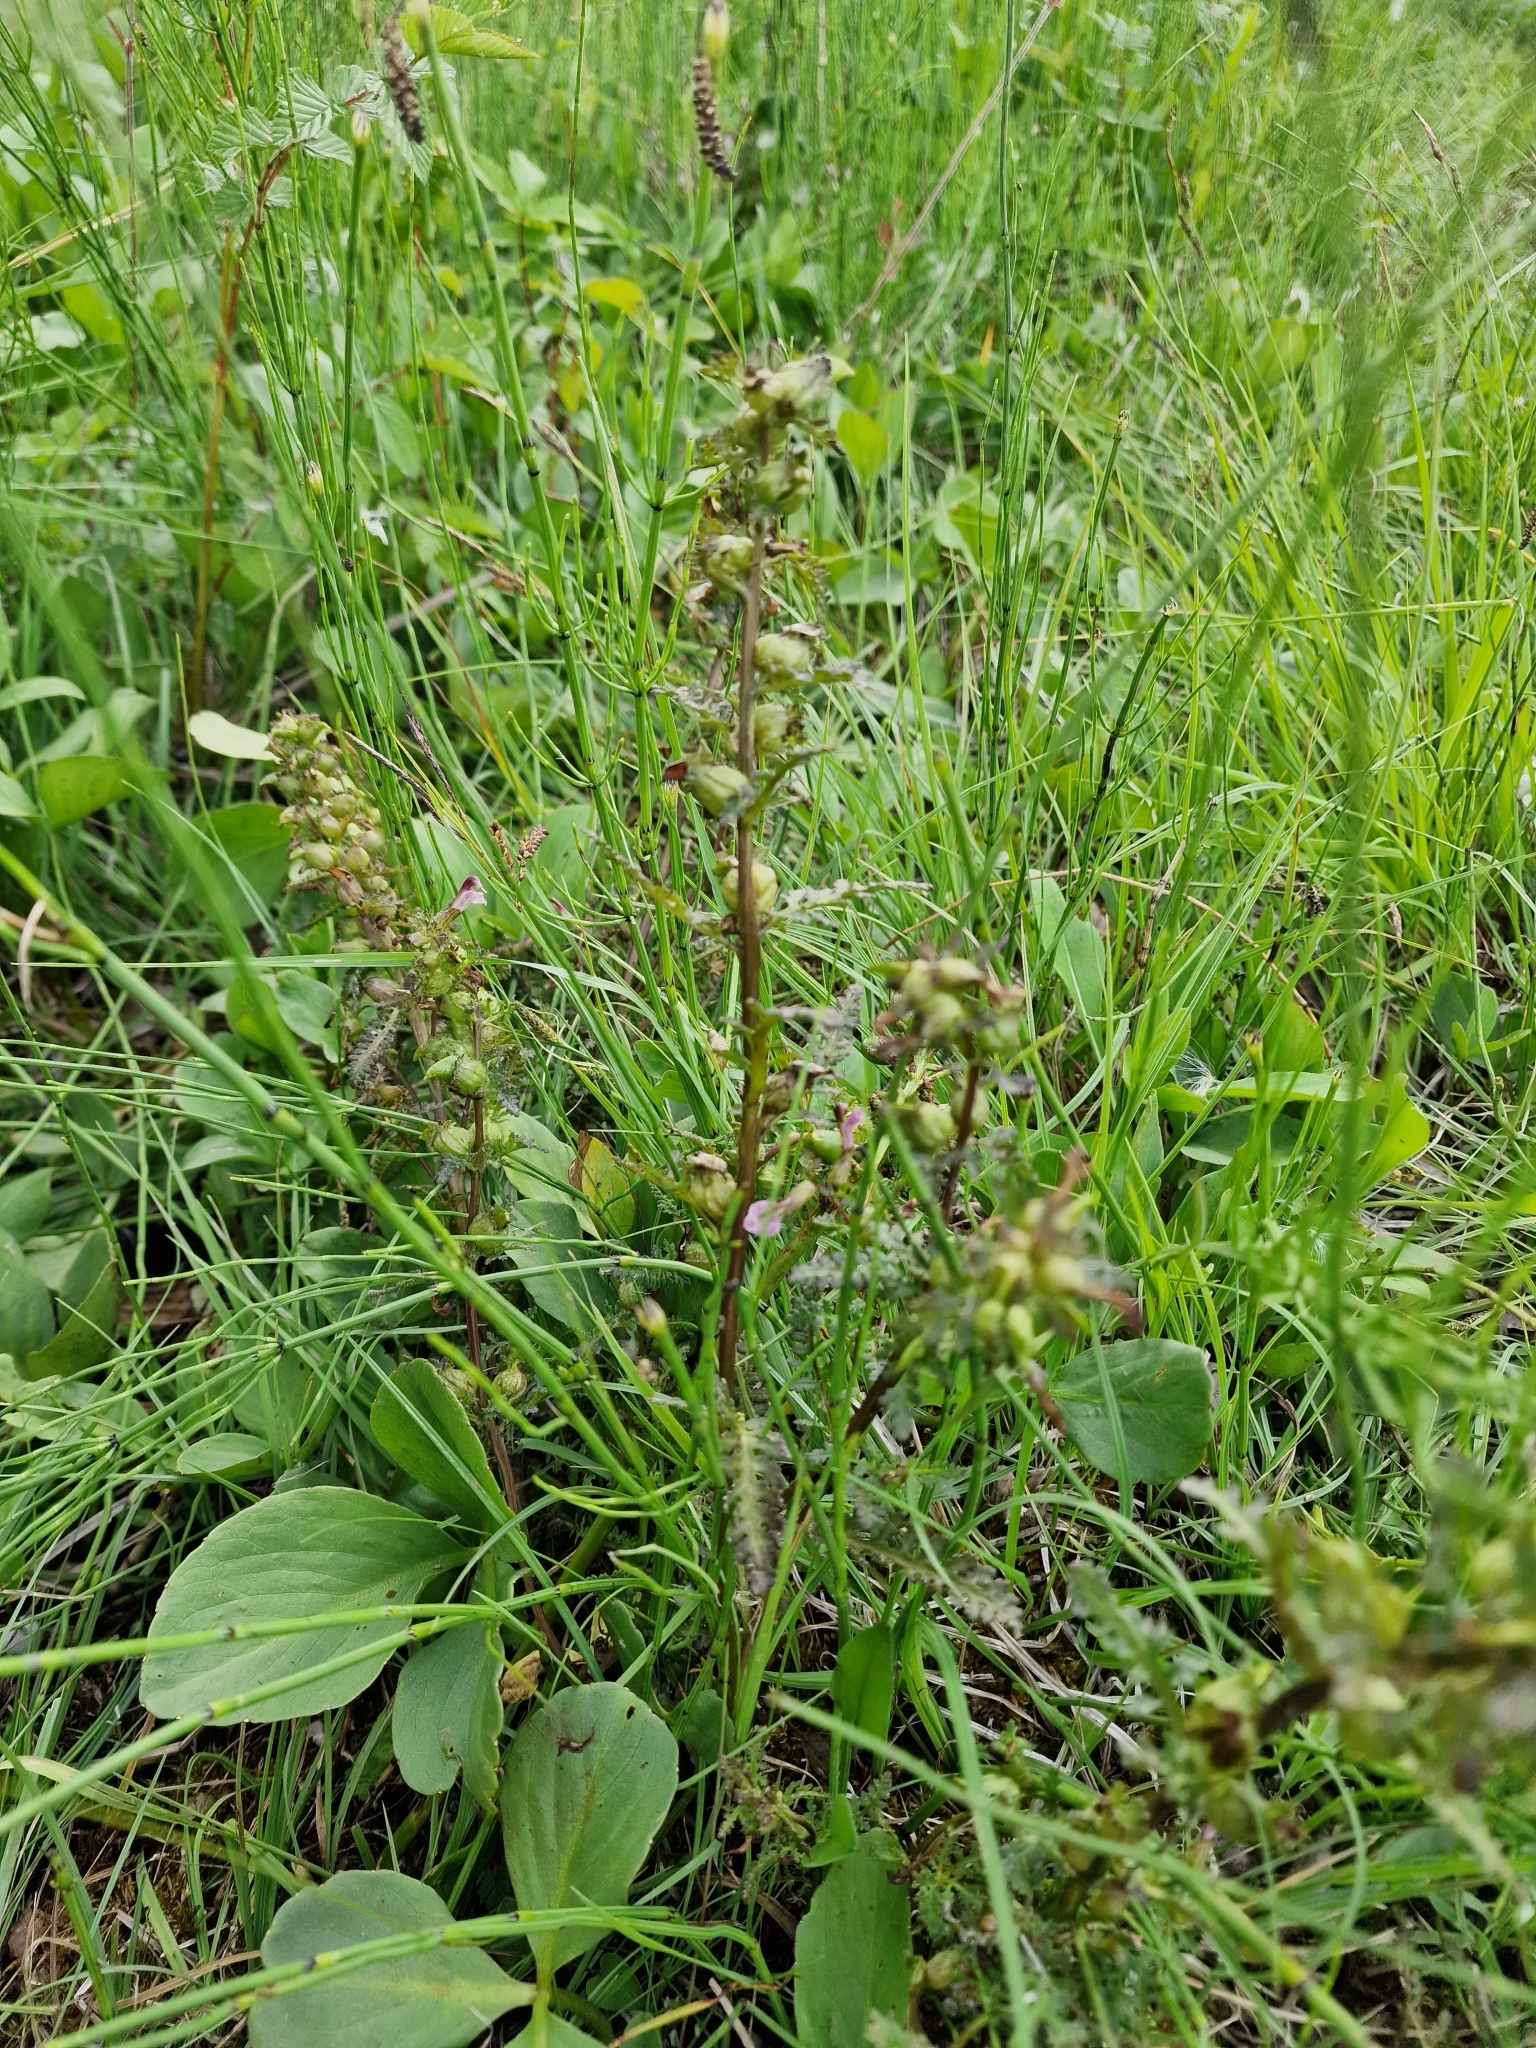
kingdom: Plantae
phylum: Tracheophyta
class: Magnoliopsida
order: Lamiales
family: Orobanchaceae
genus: Pedicularis
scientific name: Pedicularis palustris
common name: Marsh lousewort
